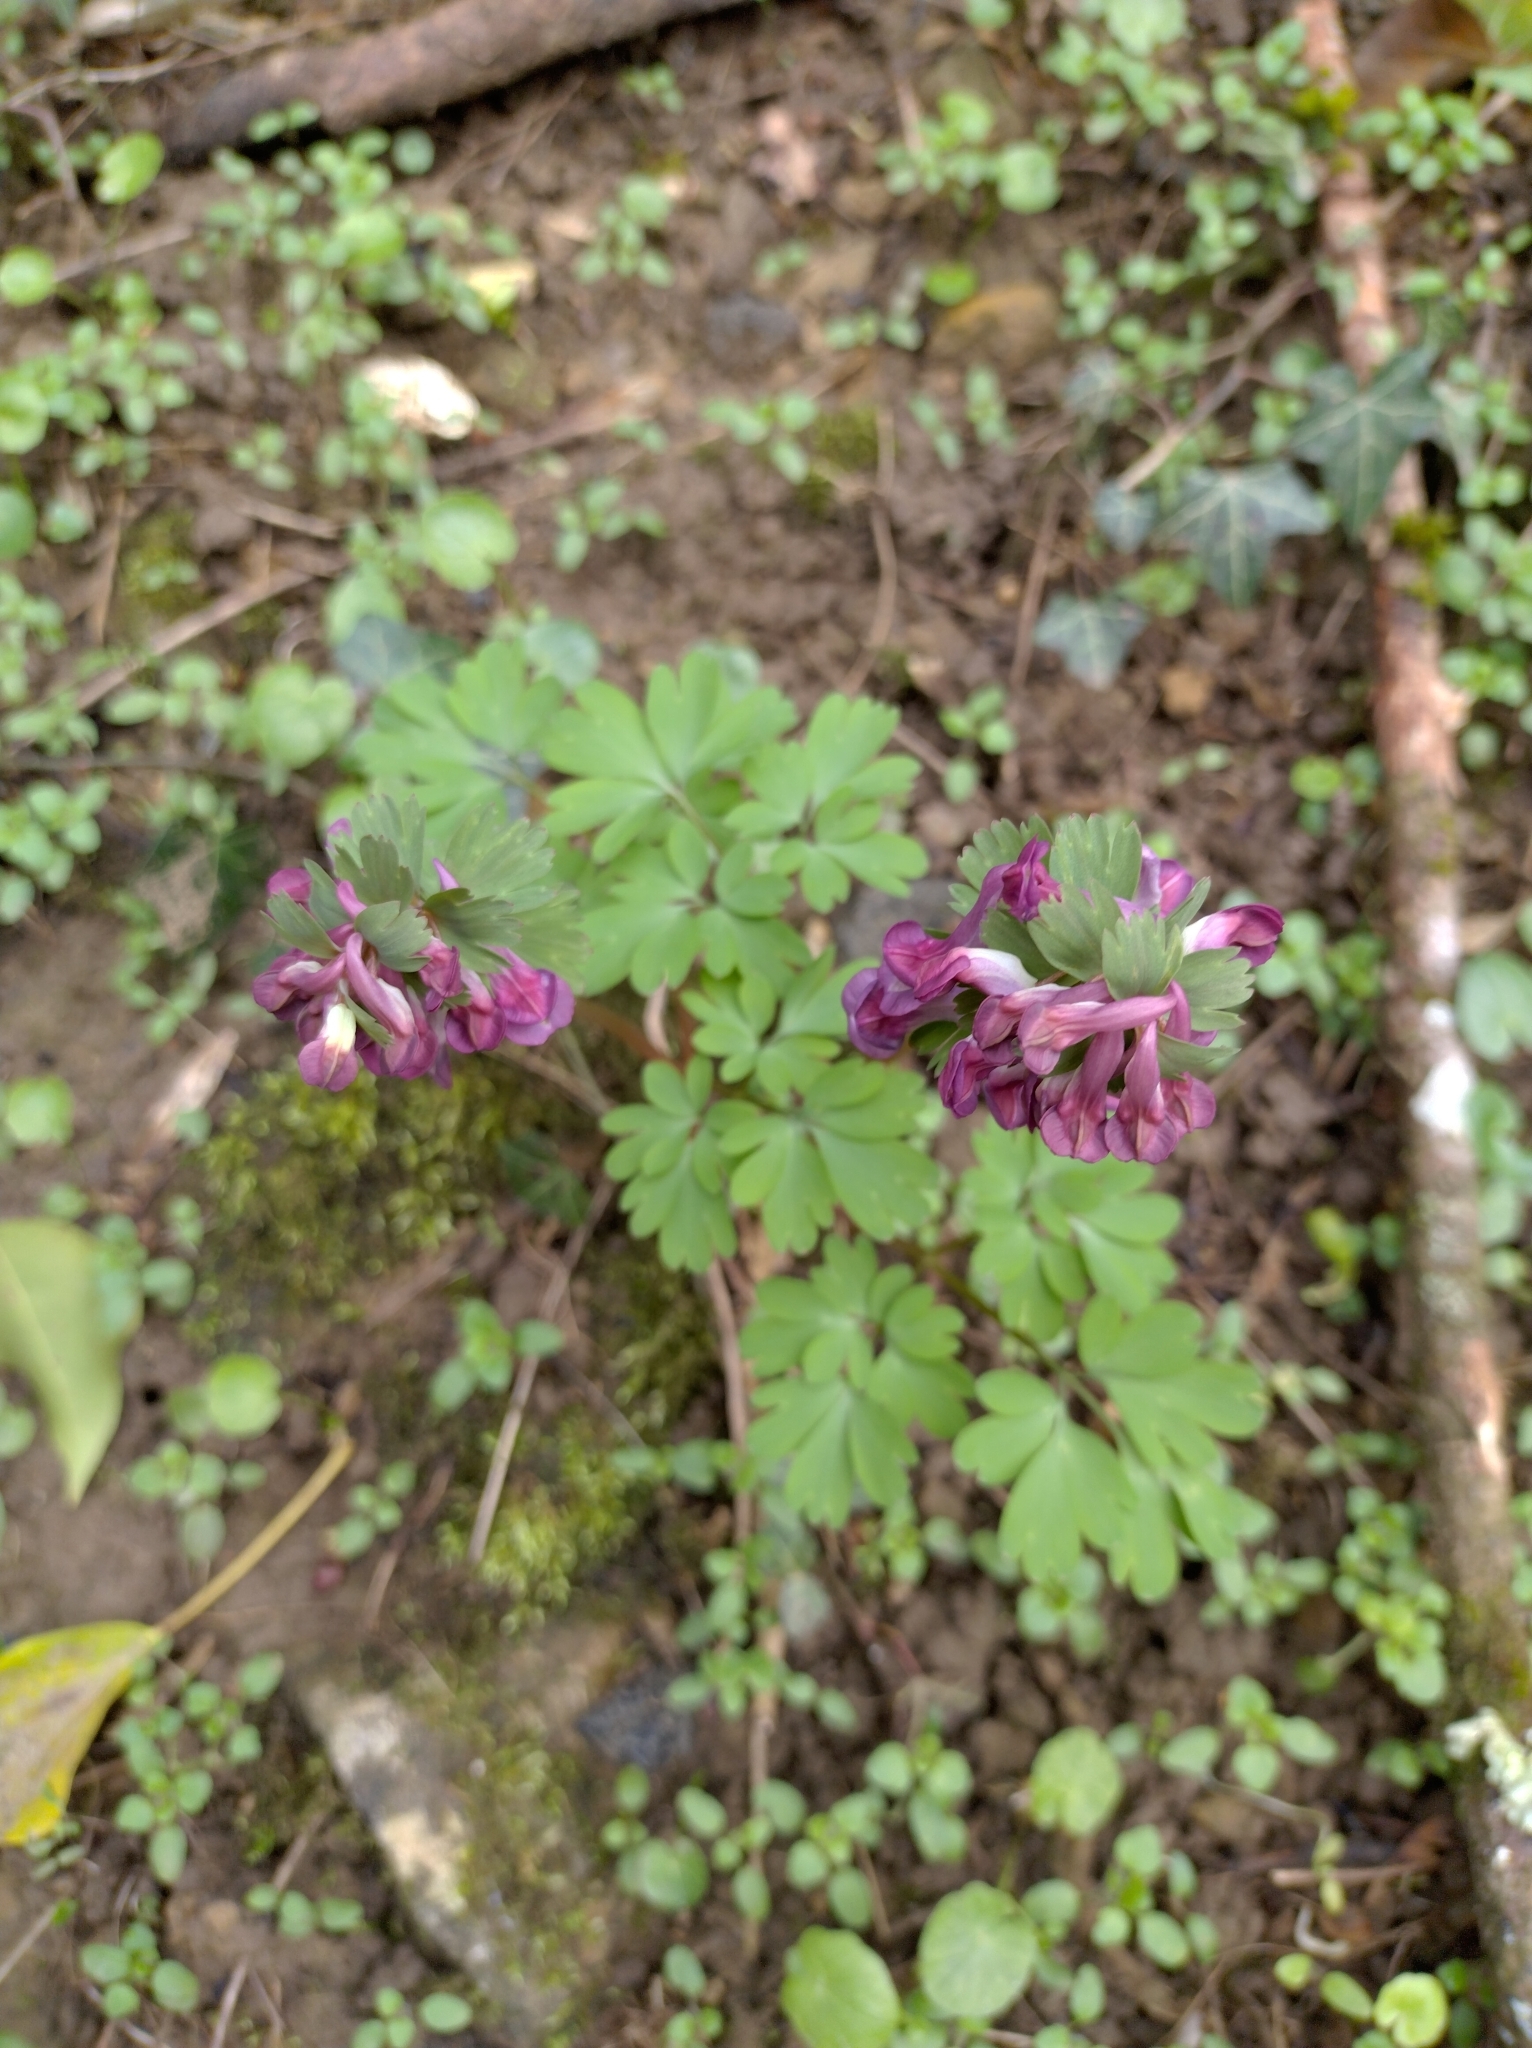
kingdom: Plantae
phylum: Tracheophyta
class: Magnoliopsida
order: Ranunculales
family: Papaveraceae
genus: Corydalis
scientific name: Corydalis solida
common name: Bird-in-a-bush
